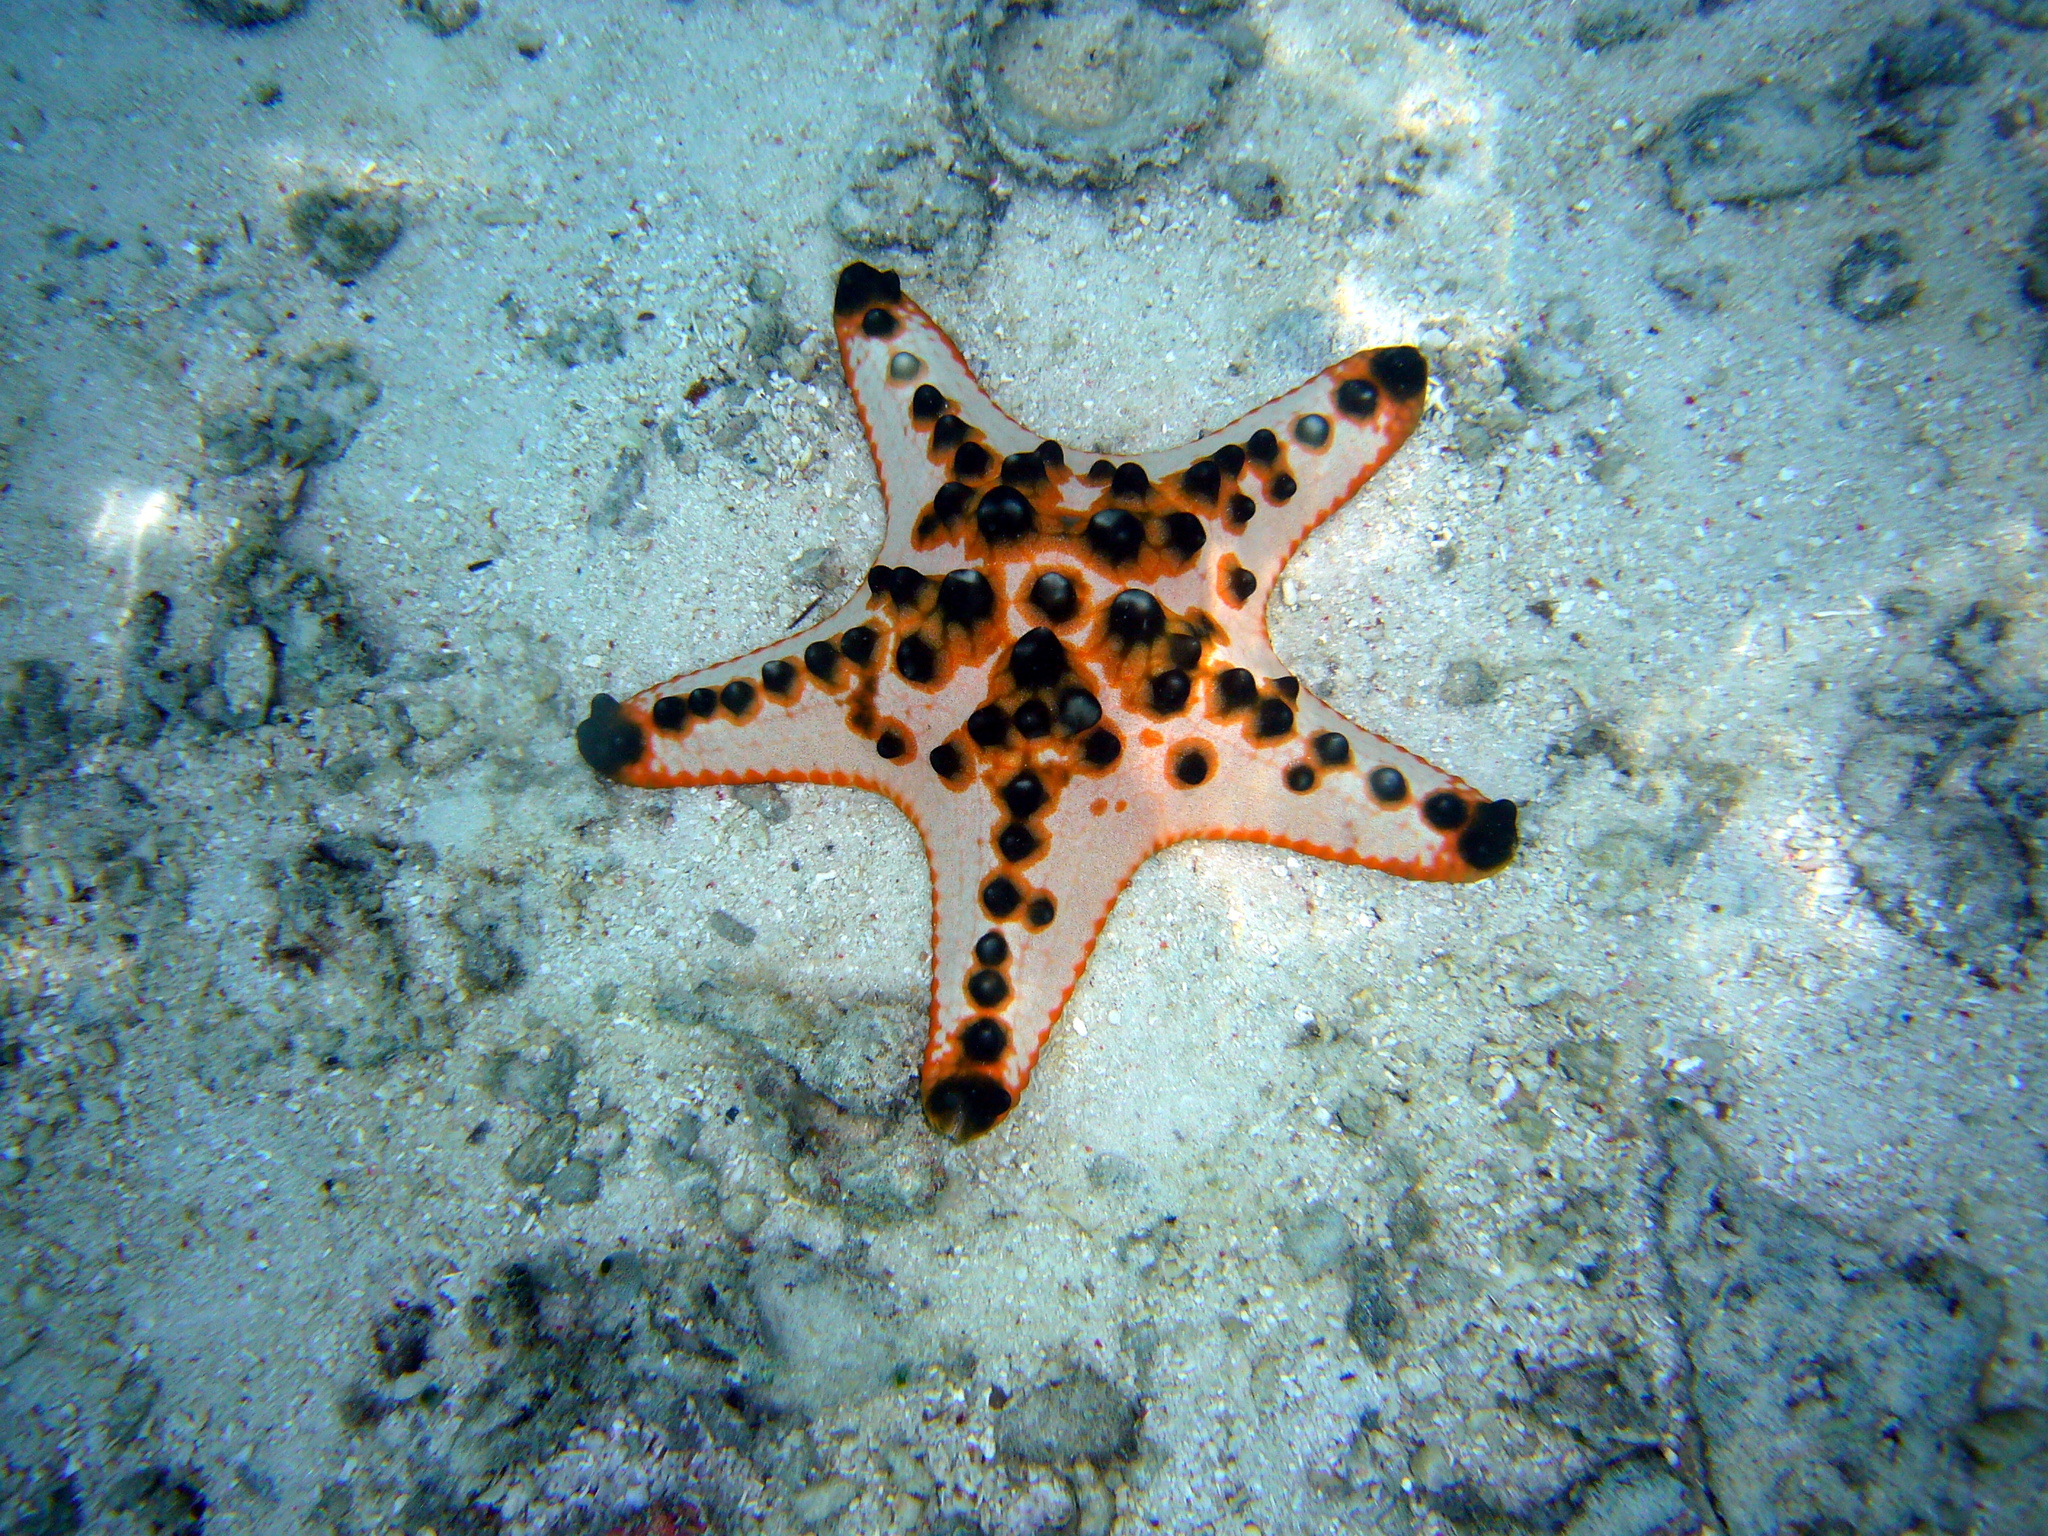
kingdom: Animalia
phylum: Echinodermata
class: Asteroidea
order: Valvatida
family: Oreasteridae
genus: Protoreaster
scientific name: Protoreaster nodosus
